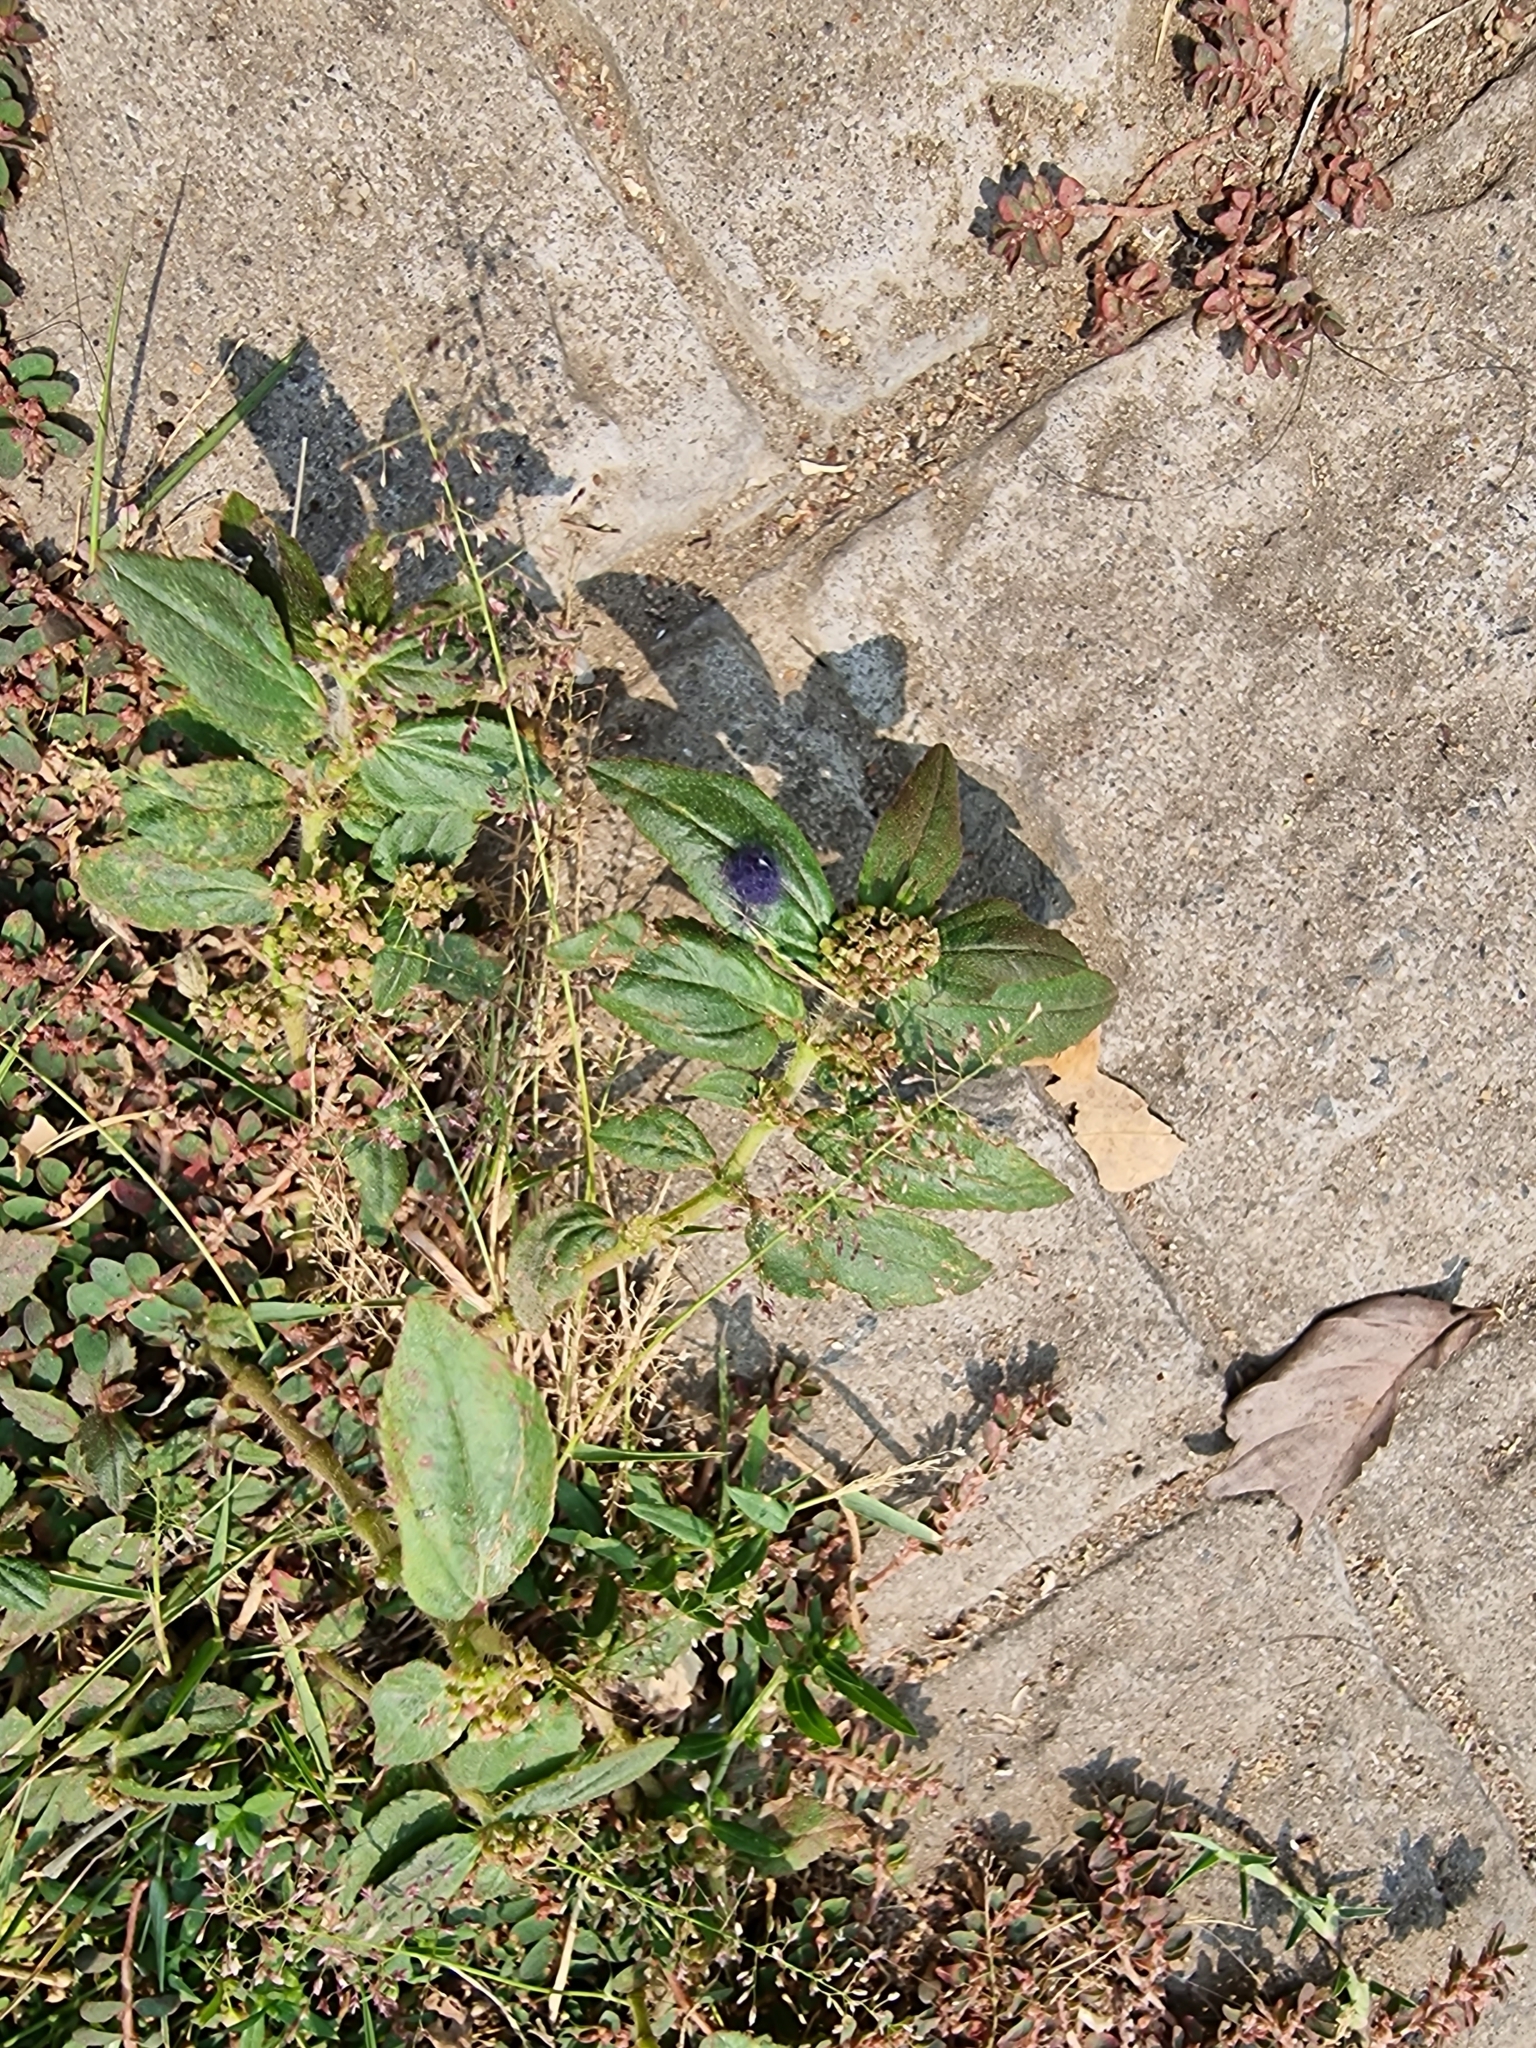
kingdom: Plantae
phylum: Tracheophyta
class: Magnoliopsida
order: Malpighiales
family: Euphorbiaceae
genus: Euphorbia
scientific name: Euphorbia hirta
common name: Pillpod sandmat
